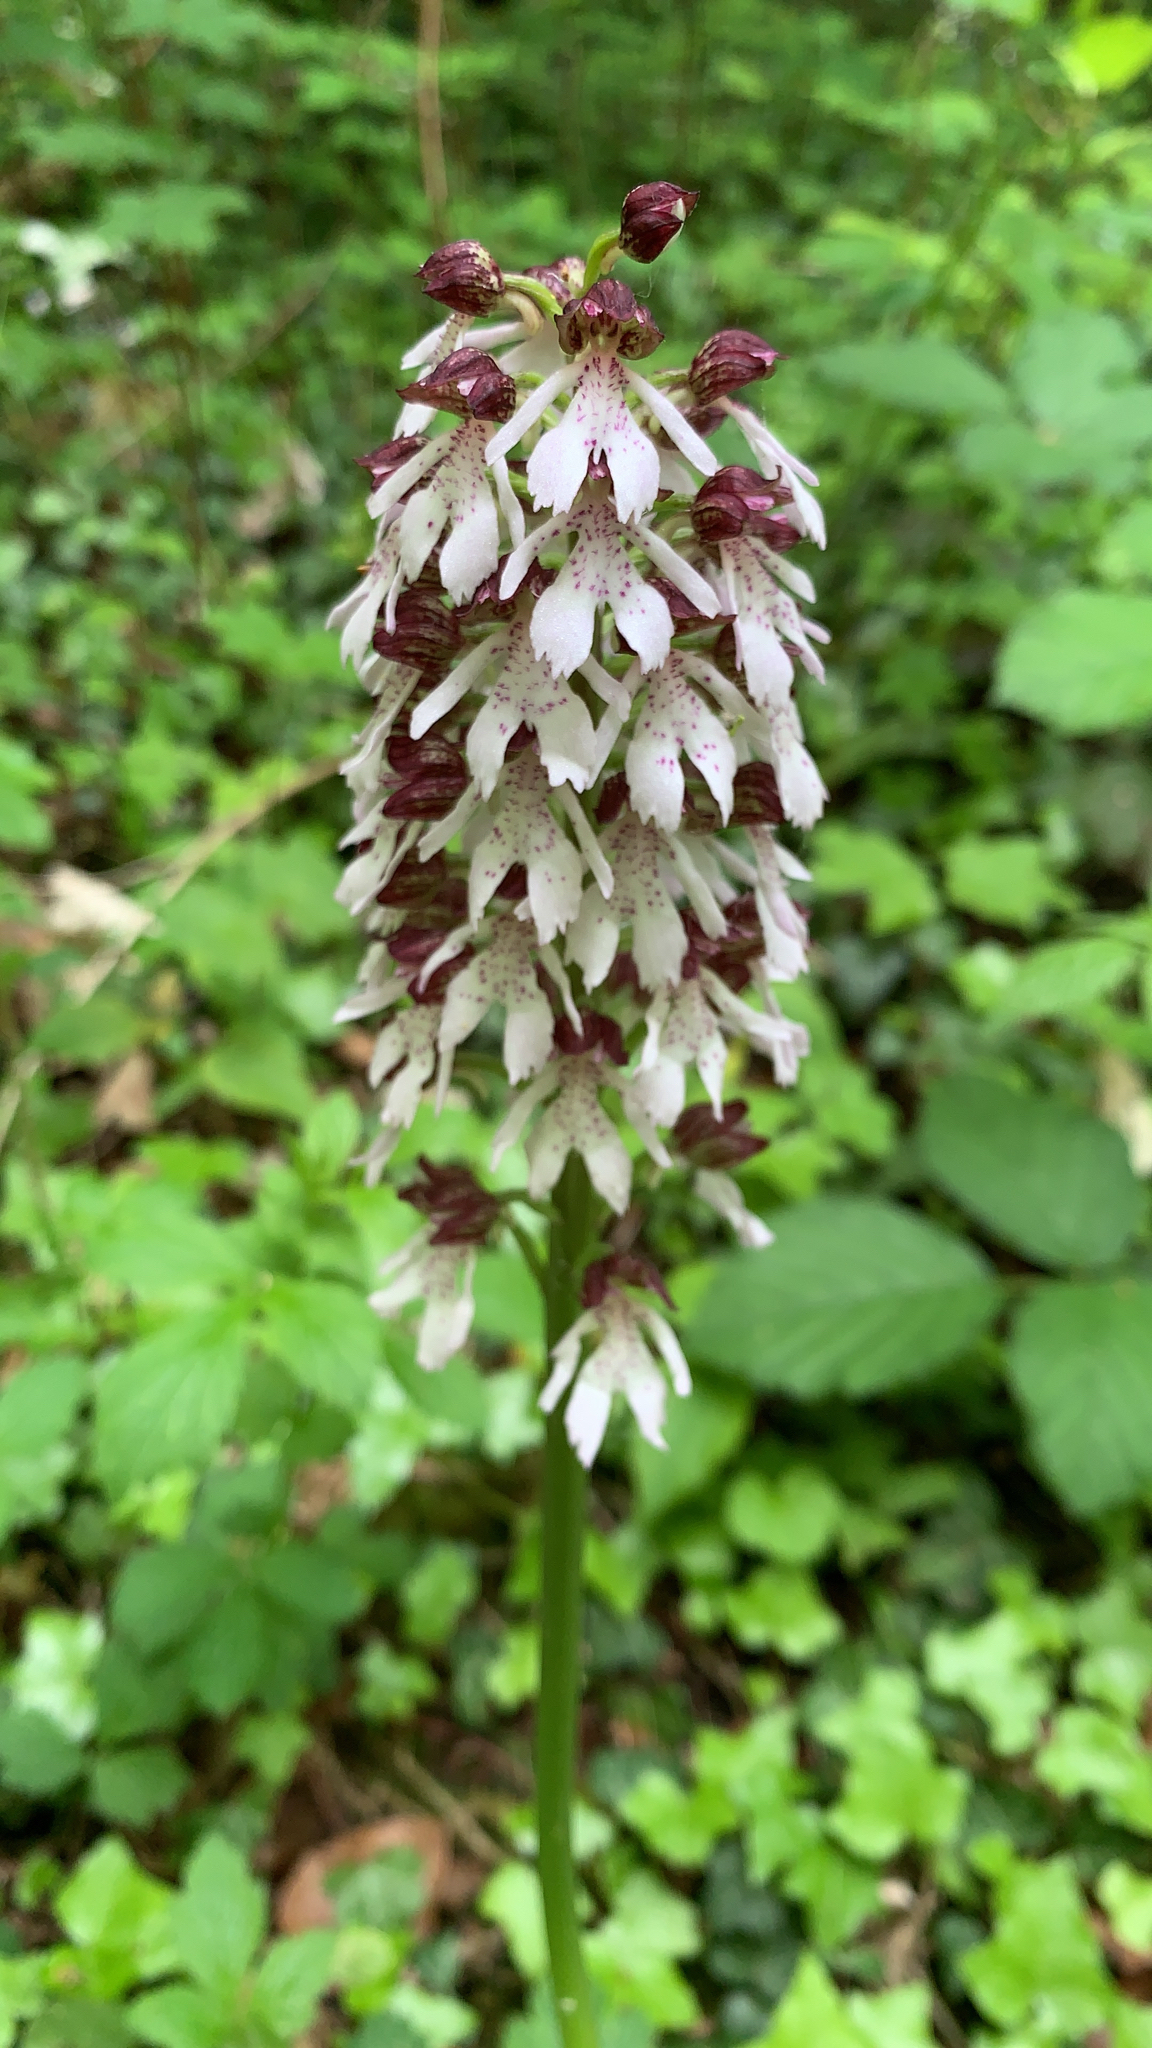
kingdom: Plantae
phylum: Tracheophyta
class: Liliopsida
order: Asparagales
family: Orchidaceae
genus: Orchis
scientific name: Orchis purpurea
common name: Lady orchid
